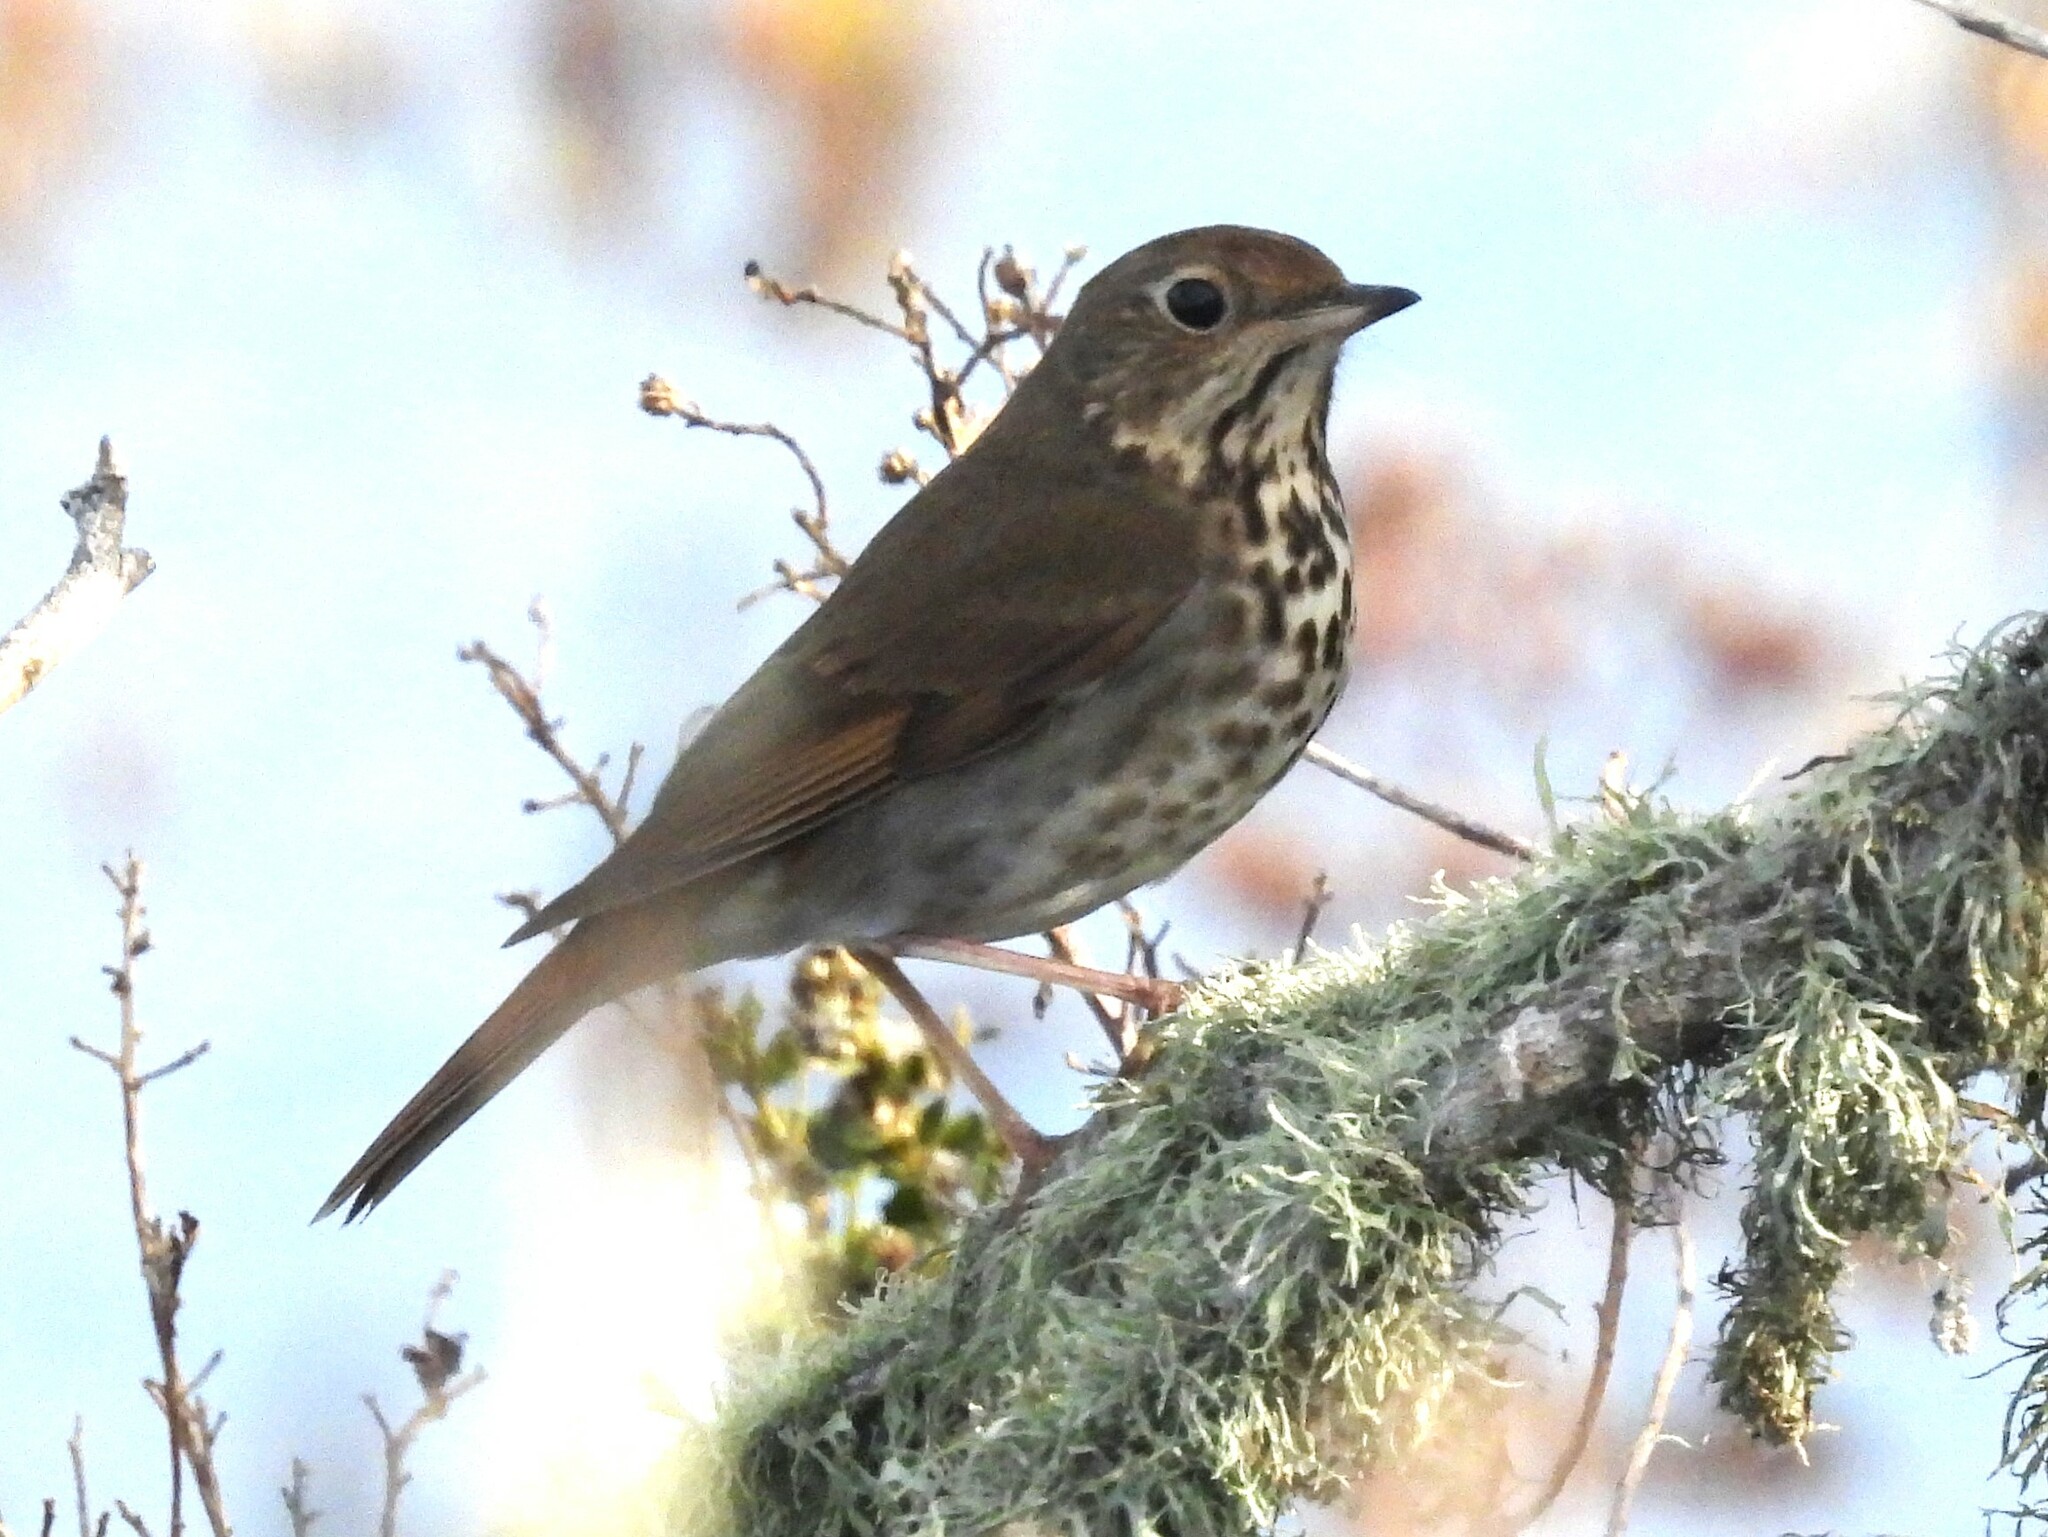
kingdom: Animalia
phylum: Chordata
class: Aves
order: Passeriformes
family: Turdidae
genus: Catharus
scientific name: Catharus guttatus
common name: Hermit thrush
